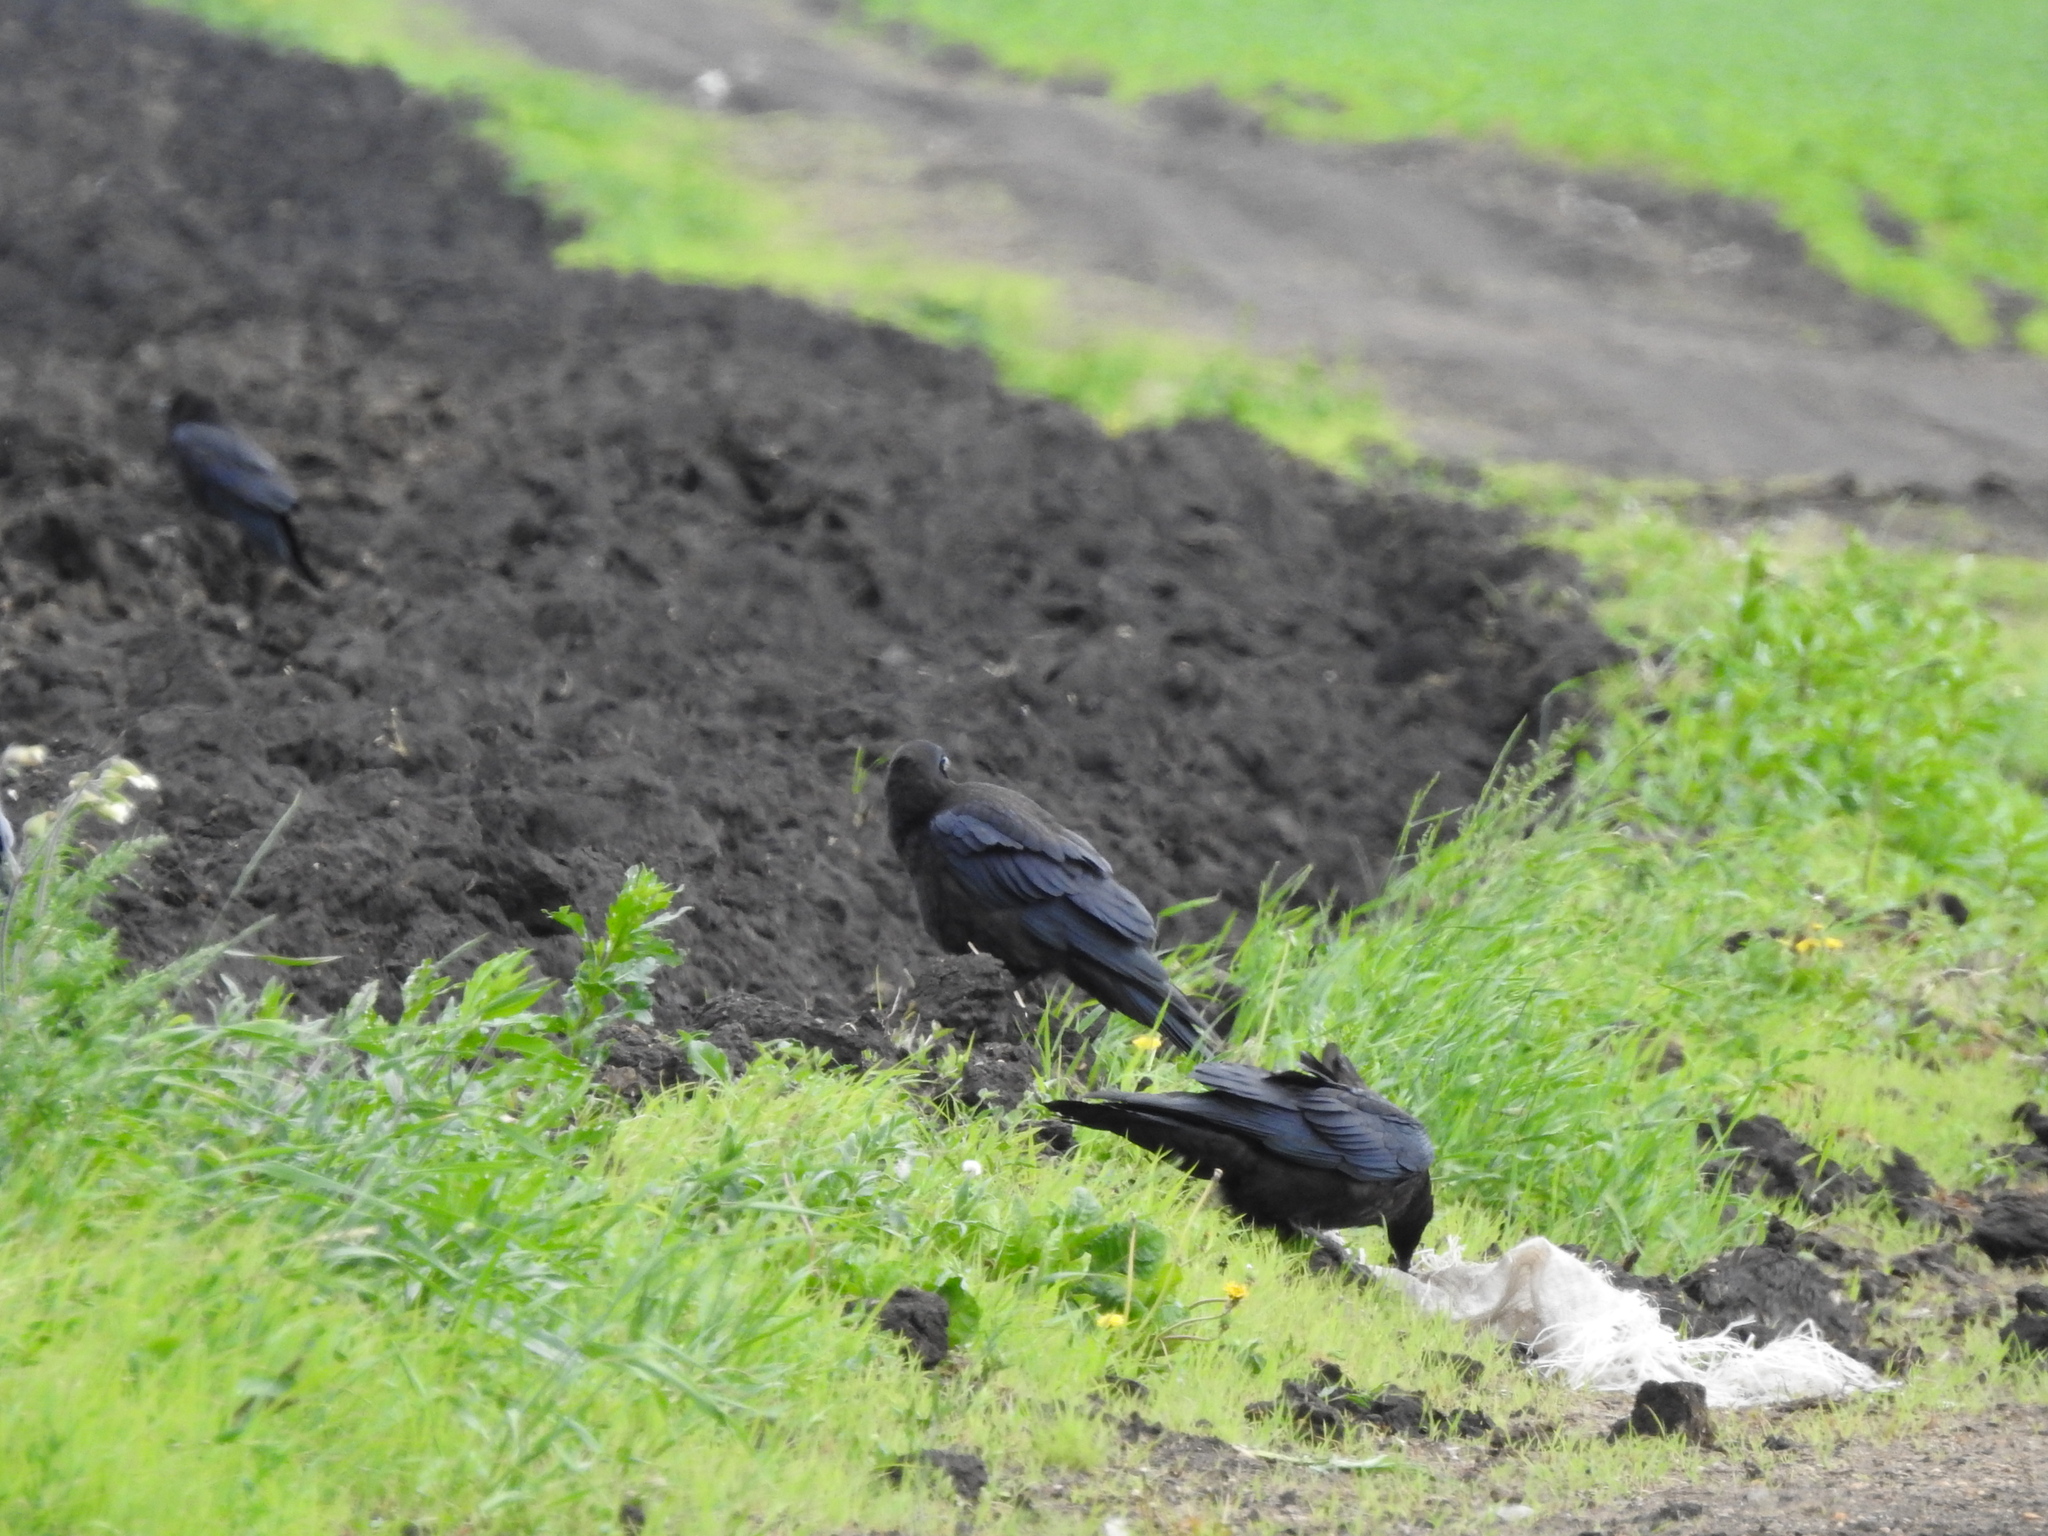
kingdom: Animalia
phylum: Chordata
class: Aves
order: Passeriformes
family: Corvidae
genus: Corvus
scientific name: Corvus corax
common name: Common raven
